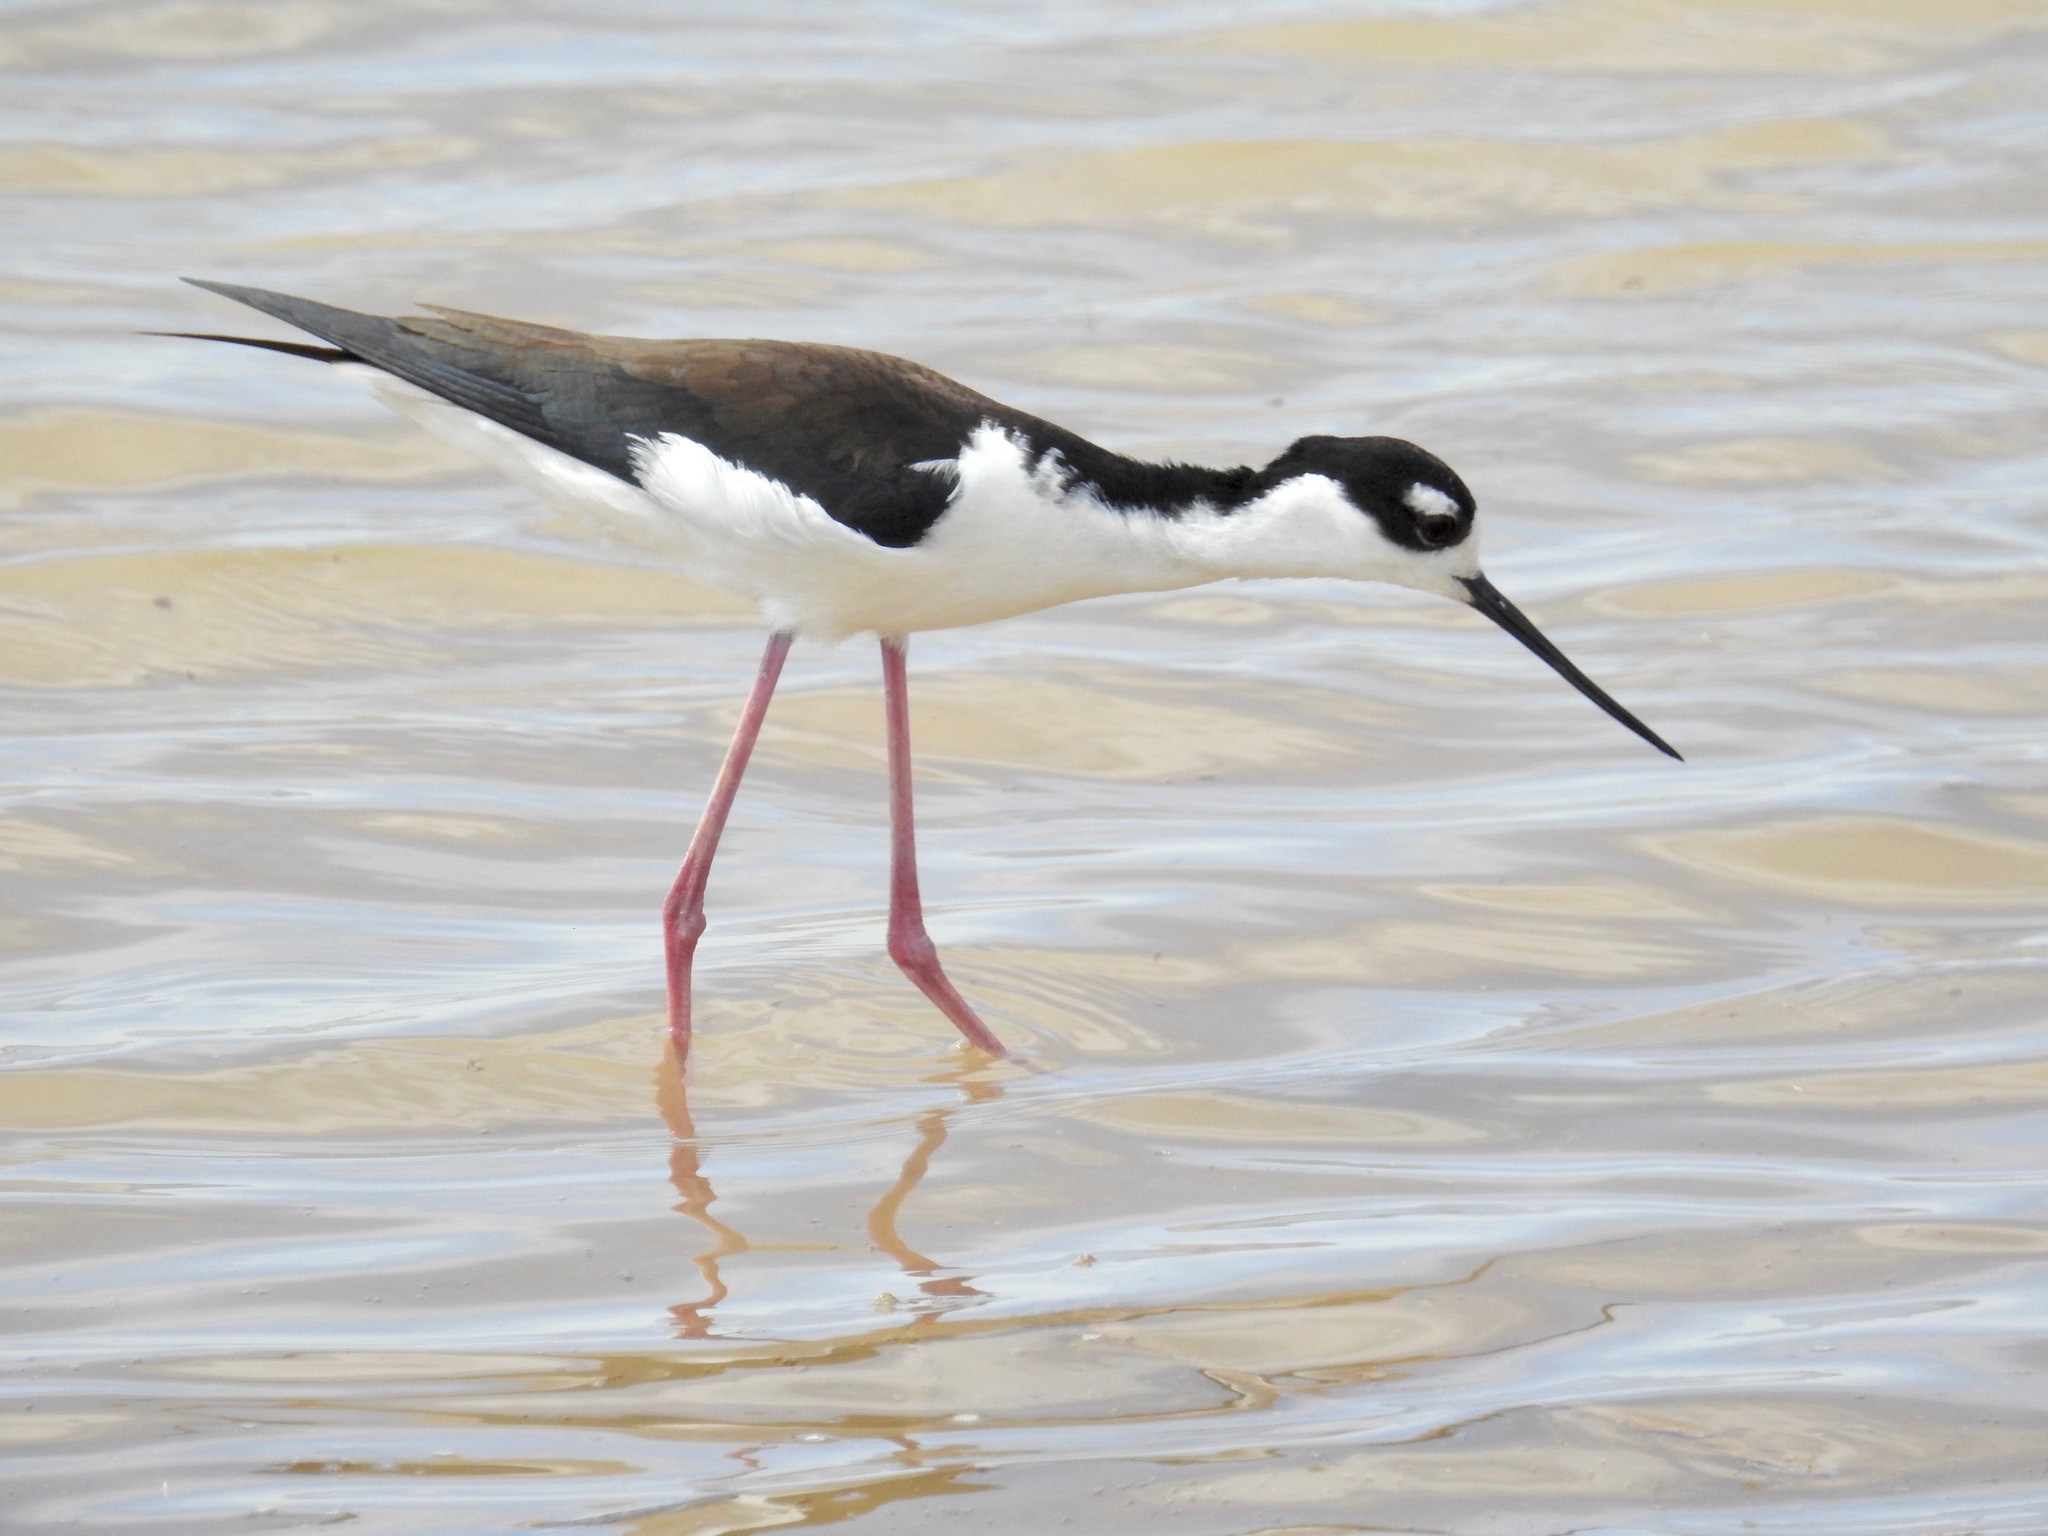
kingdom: Animalia
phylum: Chordata
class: Aves
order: Charadriiformes
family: Recurvirostridae
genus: Himantopus
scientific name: Himantopus mexicanus
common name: Black-necked stilt
